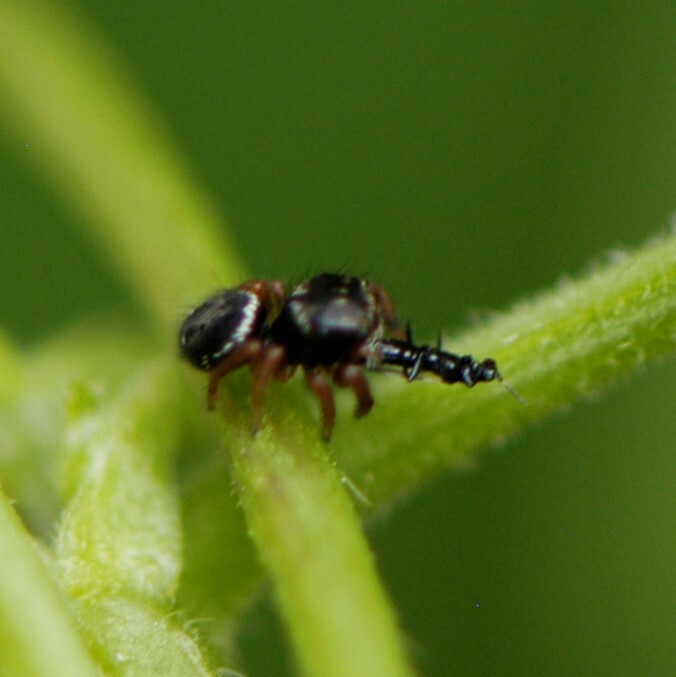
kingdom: Animalia
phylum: Arthropoda
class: Arachnida
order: Araneae
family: Salticidae
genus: Phidippus
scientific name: Phidippus
